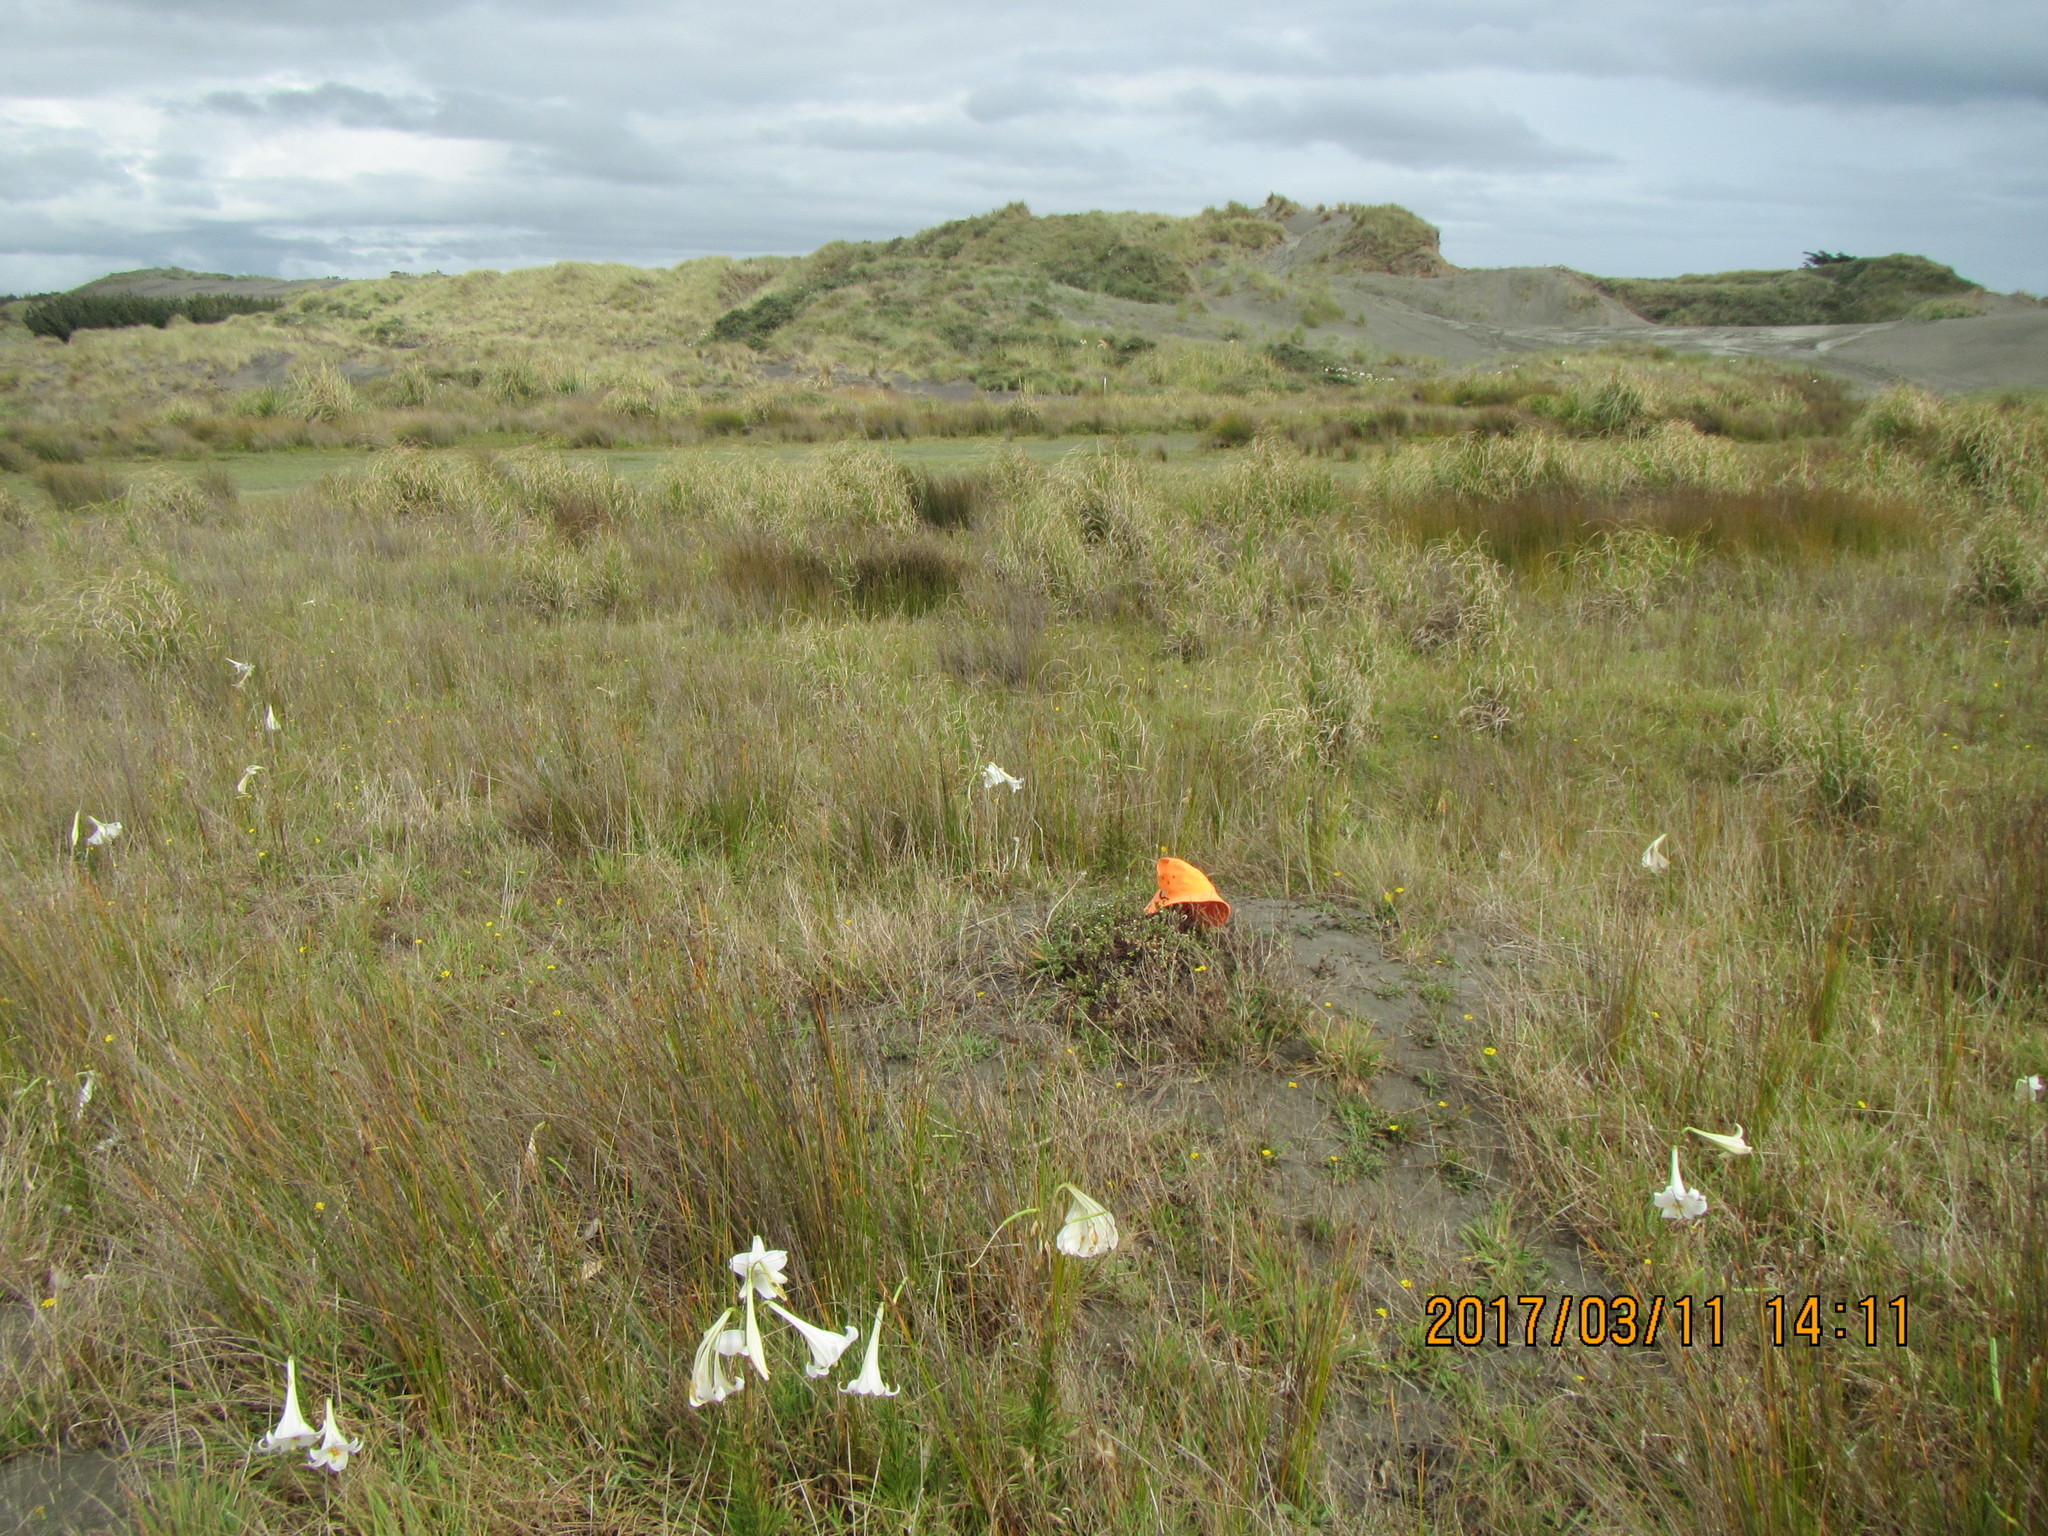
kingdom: Plantae
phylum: Tracheophyta
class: Magnoliopsida
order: Malvales
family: Thymelaeaceae
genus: Pimelea
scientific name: Pimelea villosa
